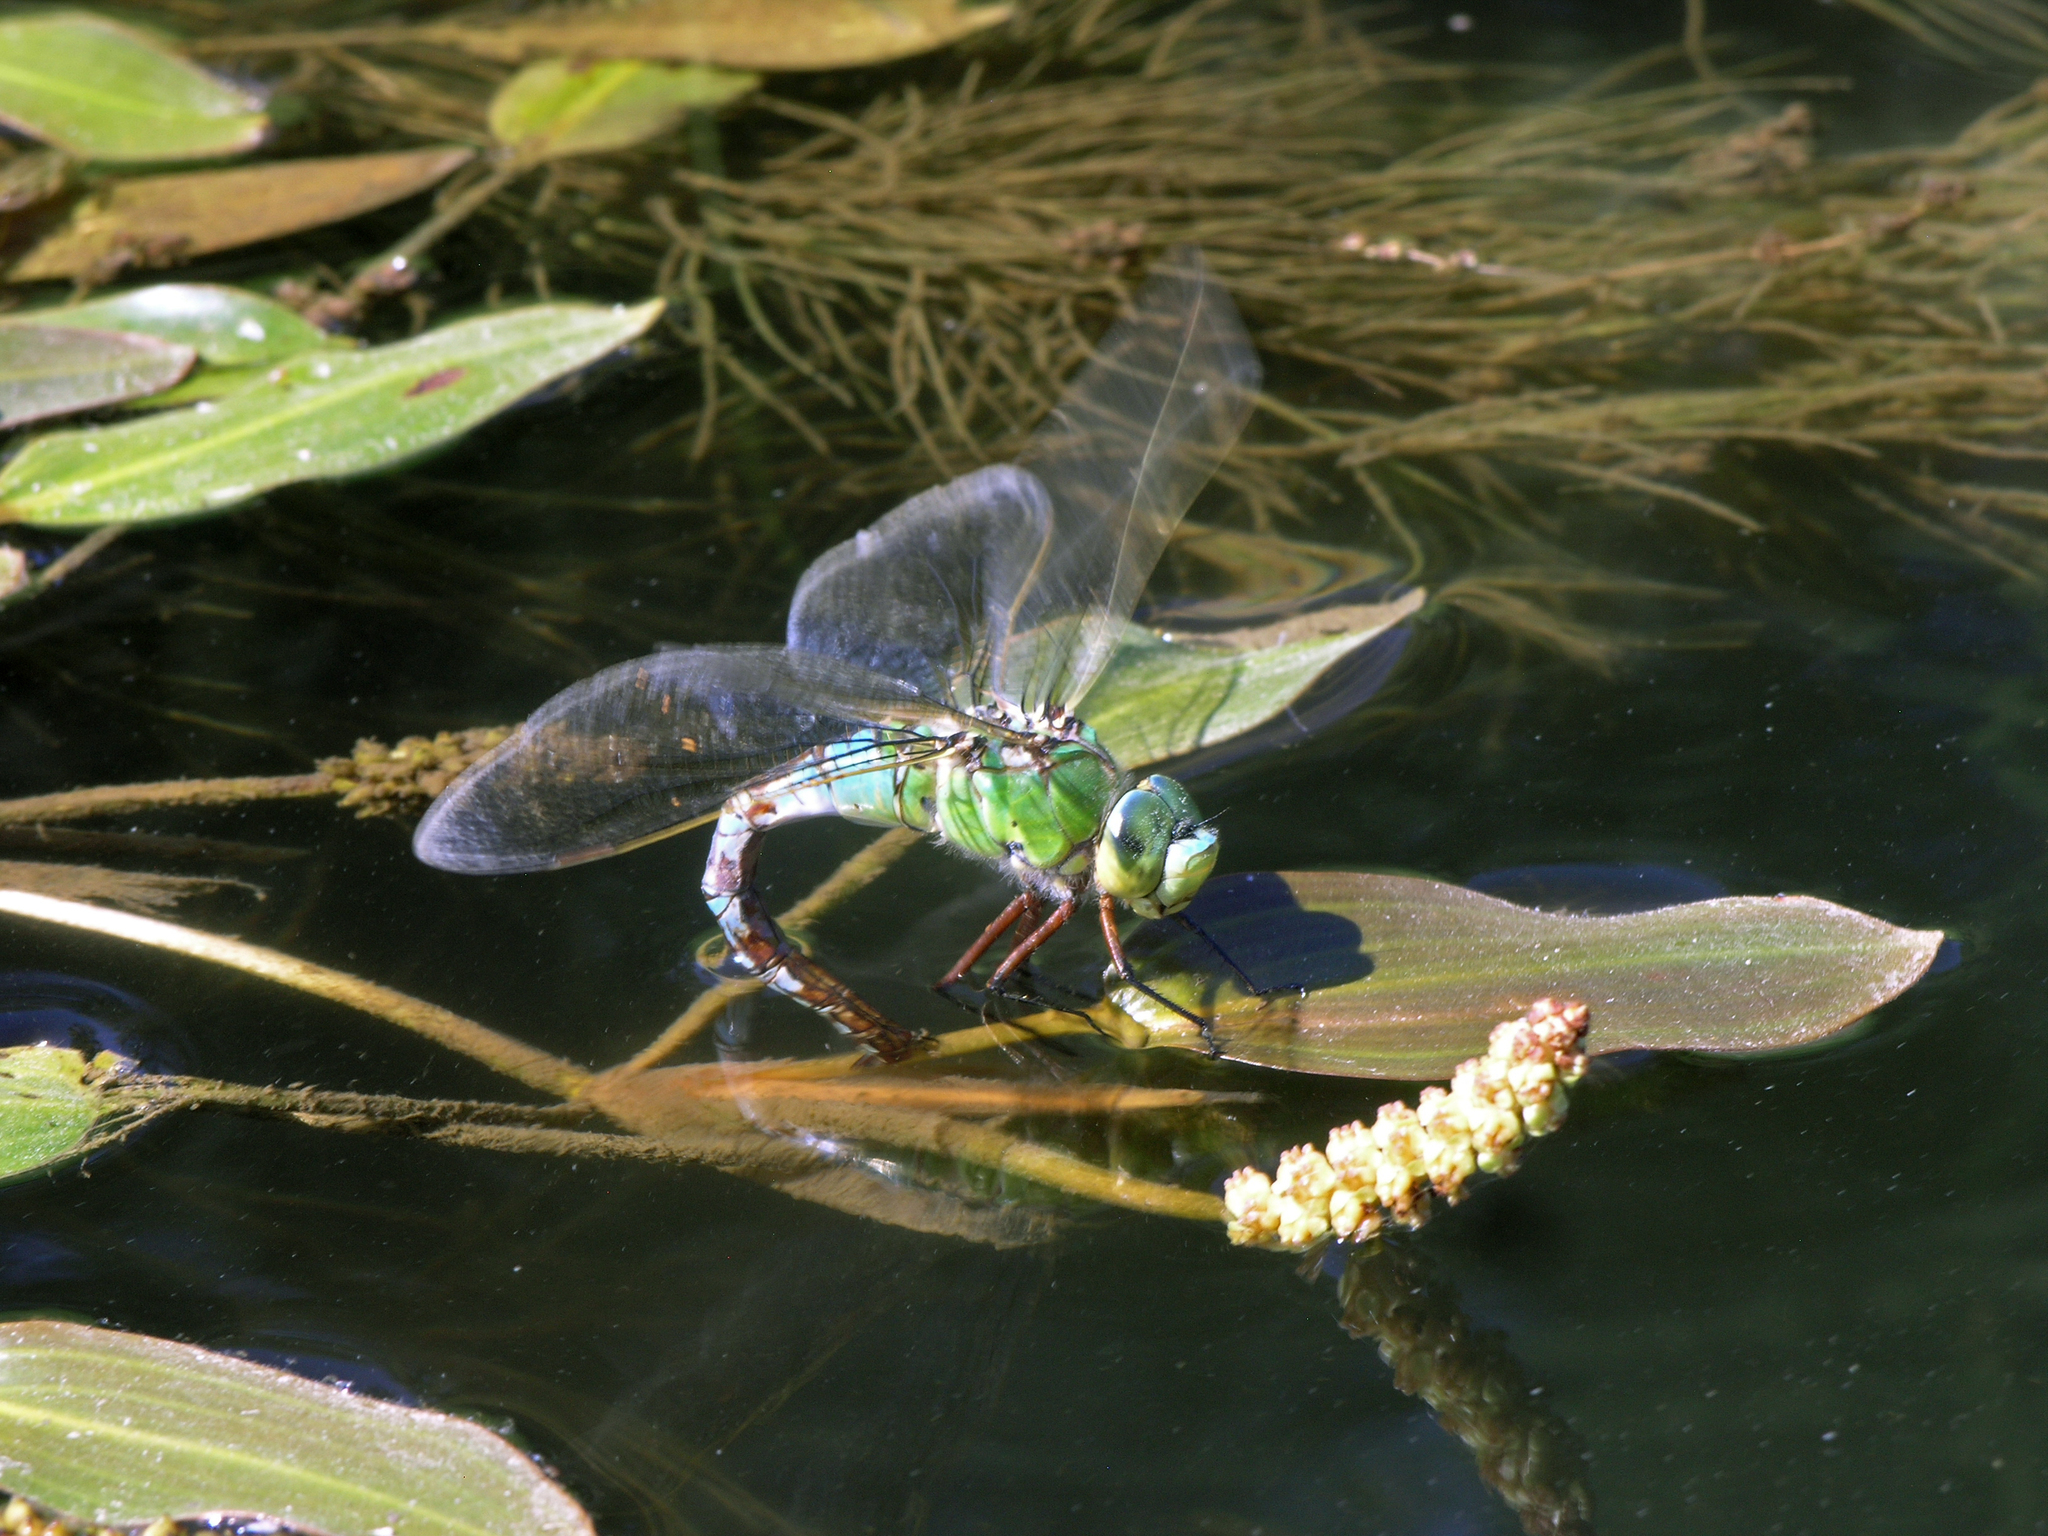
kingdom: Animalia
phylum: Arthropoda
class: Insecta
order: Odonata
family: Aeshnidae
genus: Anax
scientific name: Anax imperator
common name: Emperor dragonfly
